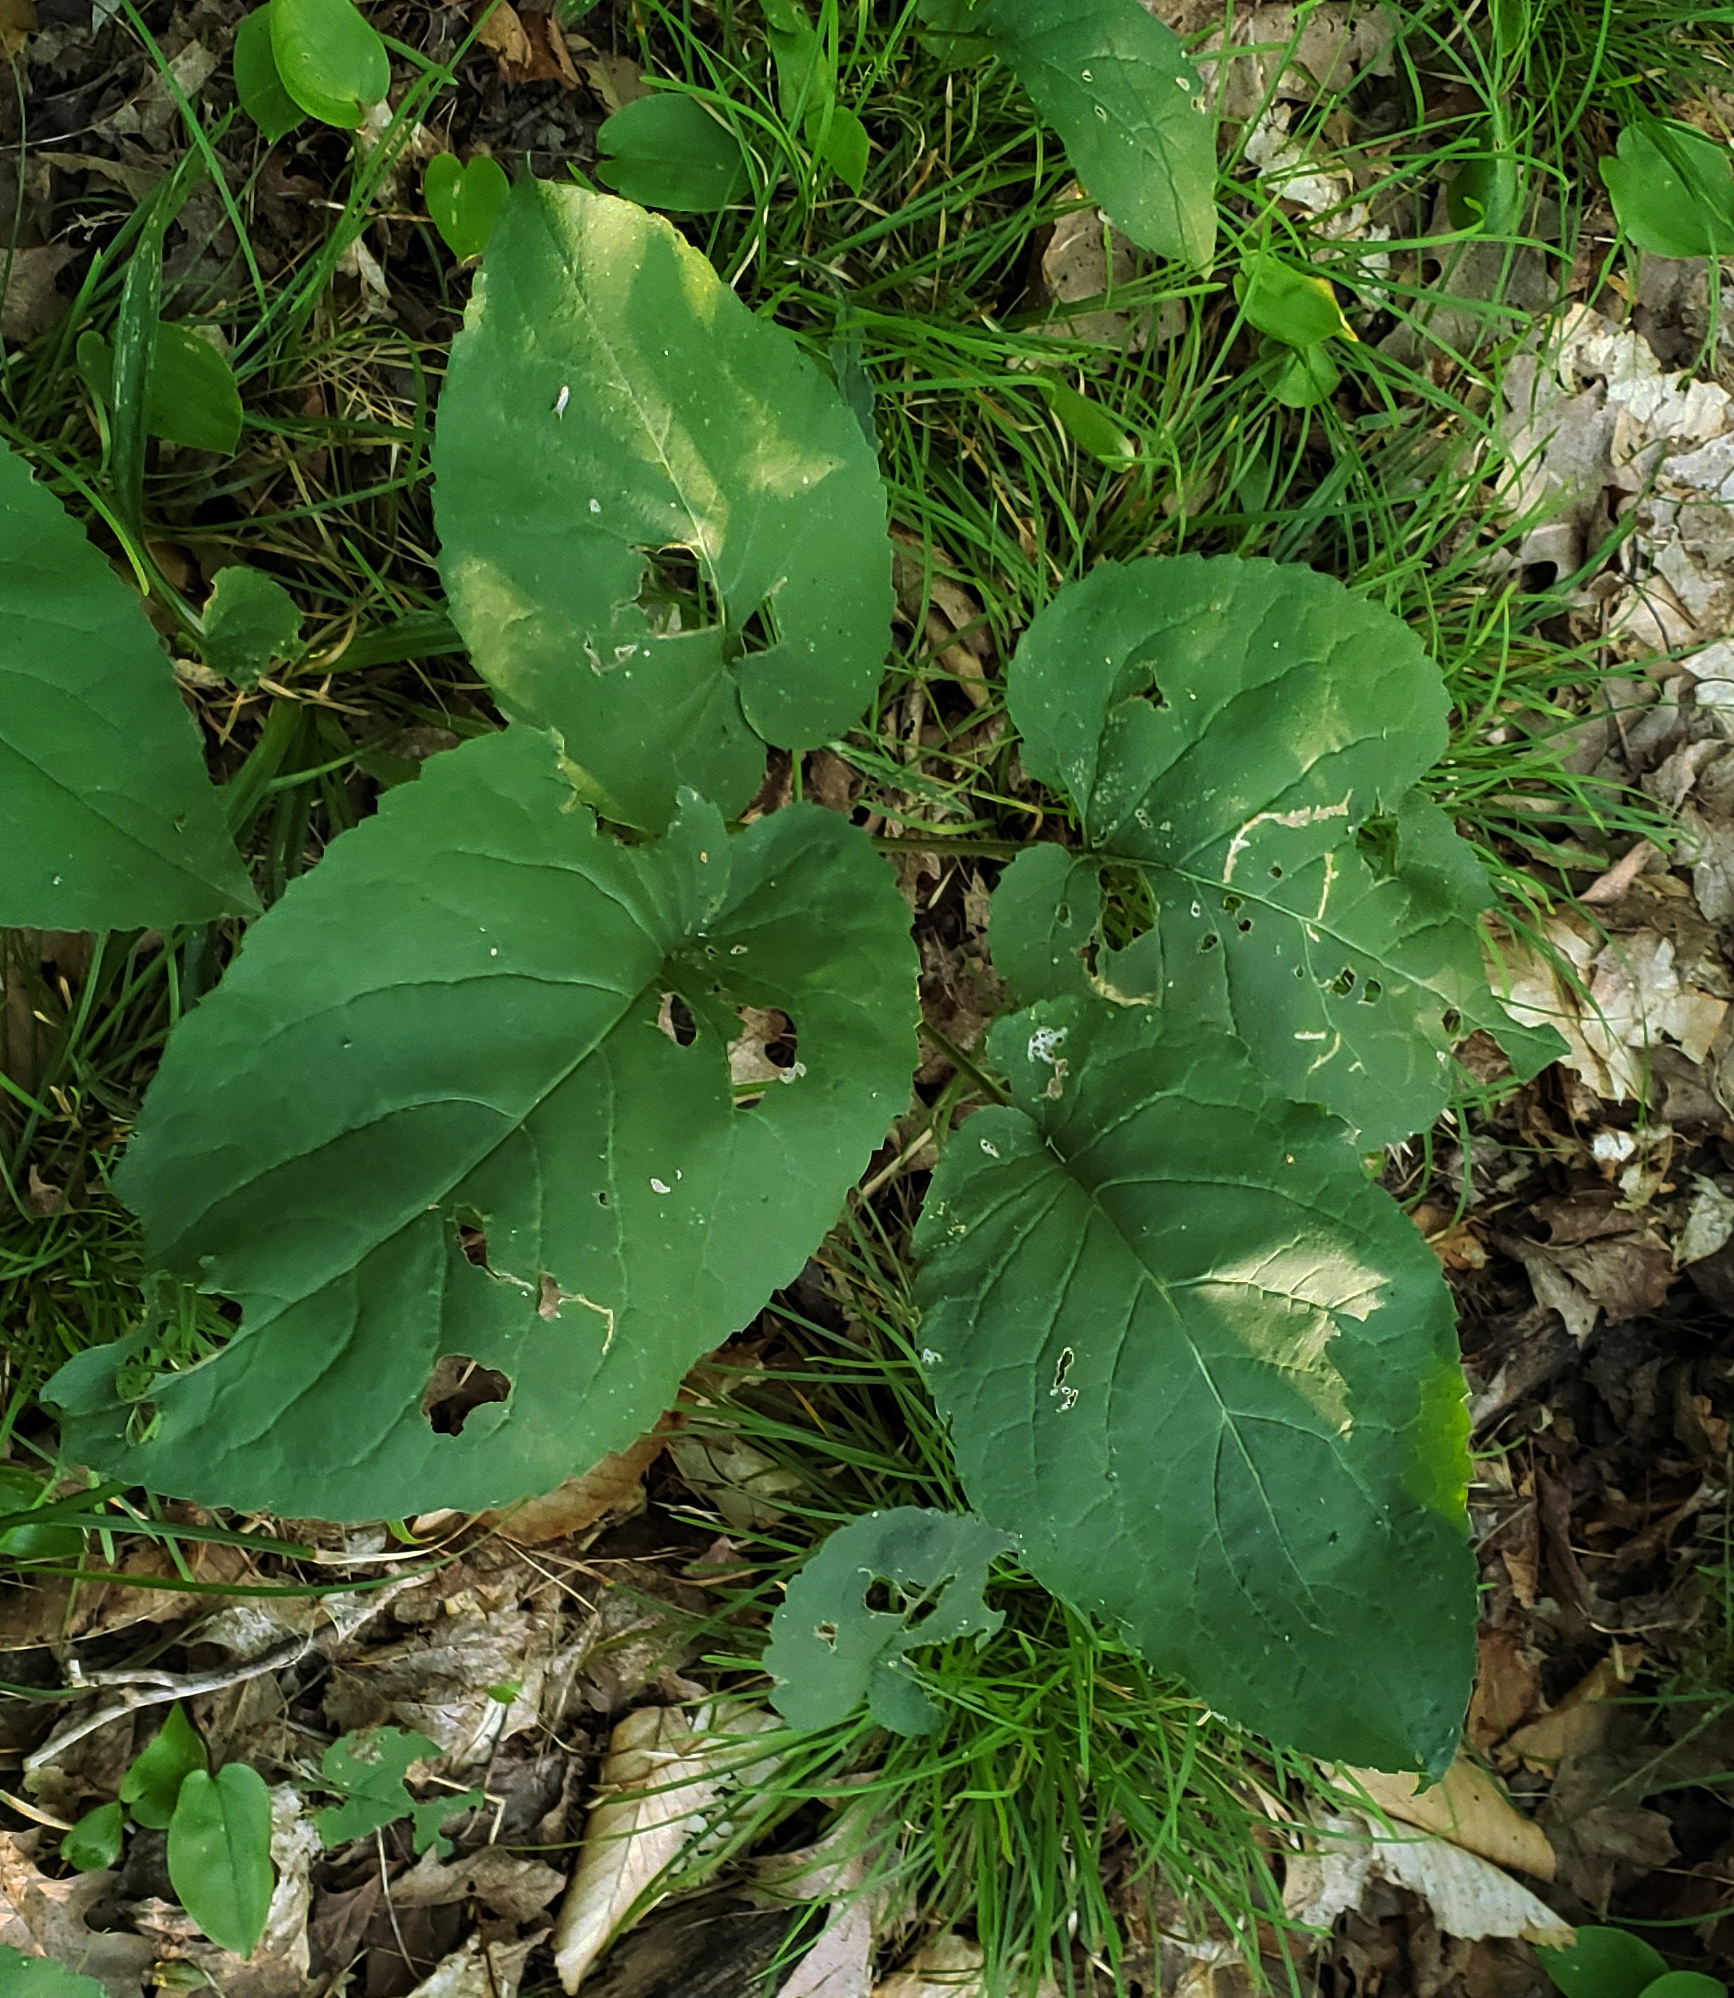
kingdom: Plantae
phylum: Tracheophyta
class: Magnoliopsida
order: Asterales
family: Asteraceae
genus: Eurybia
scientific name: Eurybia macrophylla
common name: Big-leaved aster
